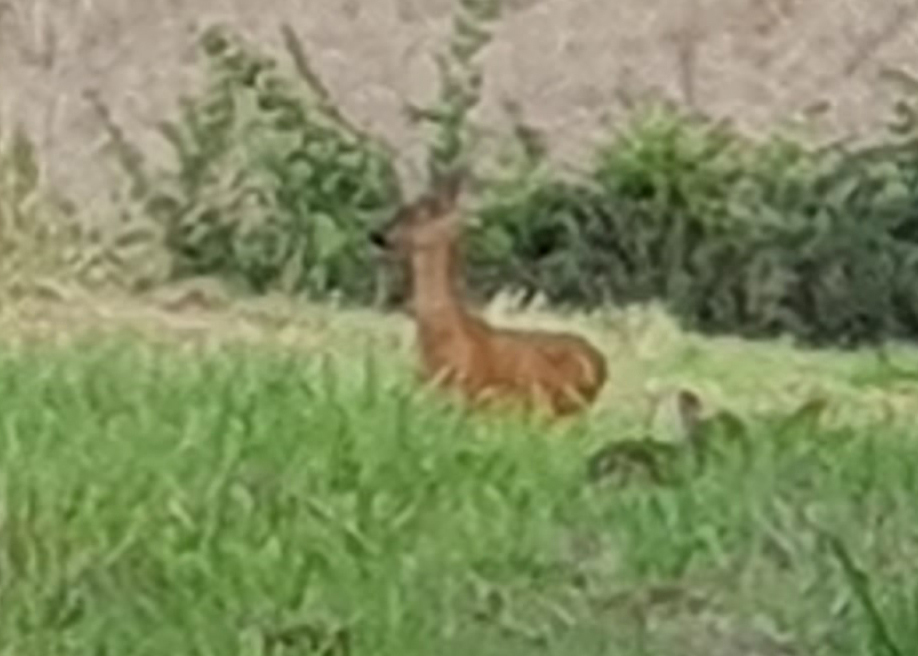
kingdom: Animalia
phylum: Chordata
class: Mammalia
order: Artiodactyla
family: Cervidae
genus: Capreolus
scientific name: Capreolus capreolus
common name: Western roe deer
